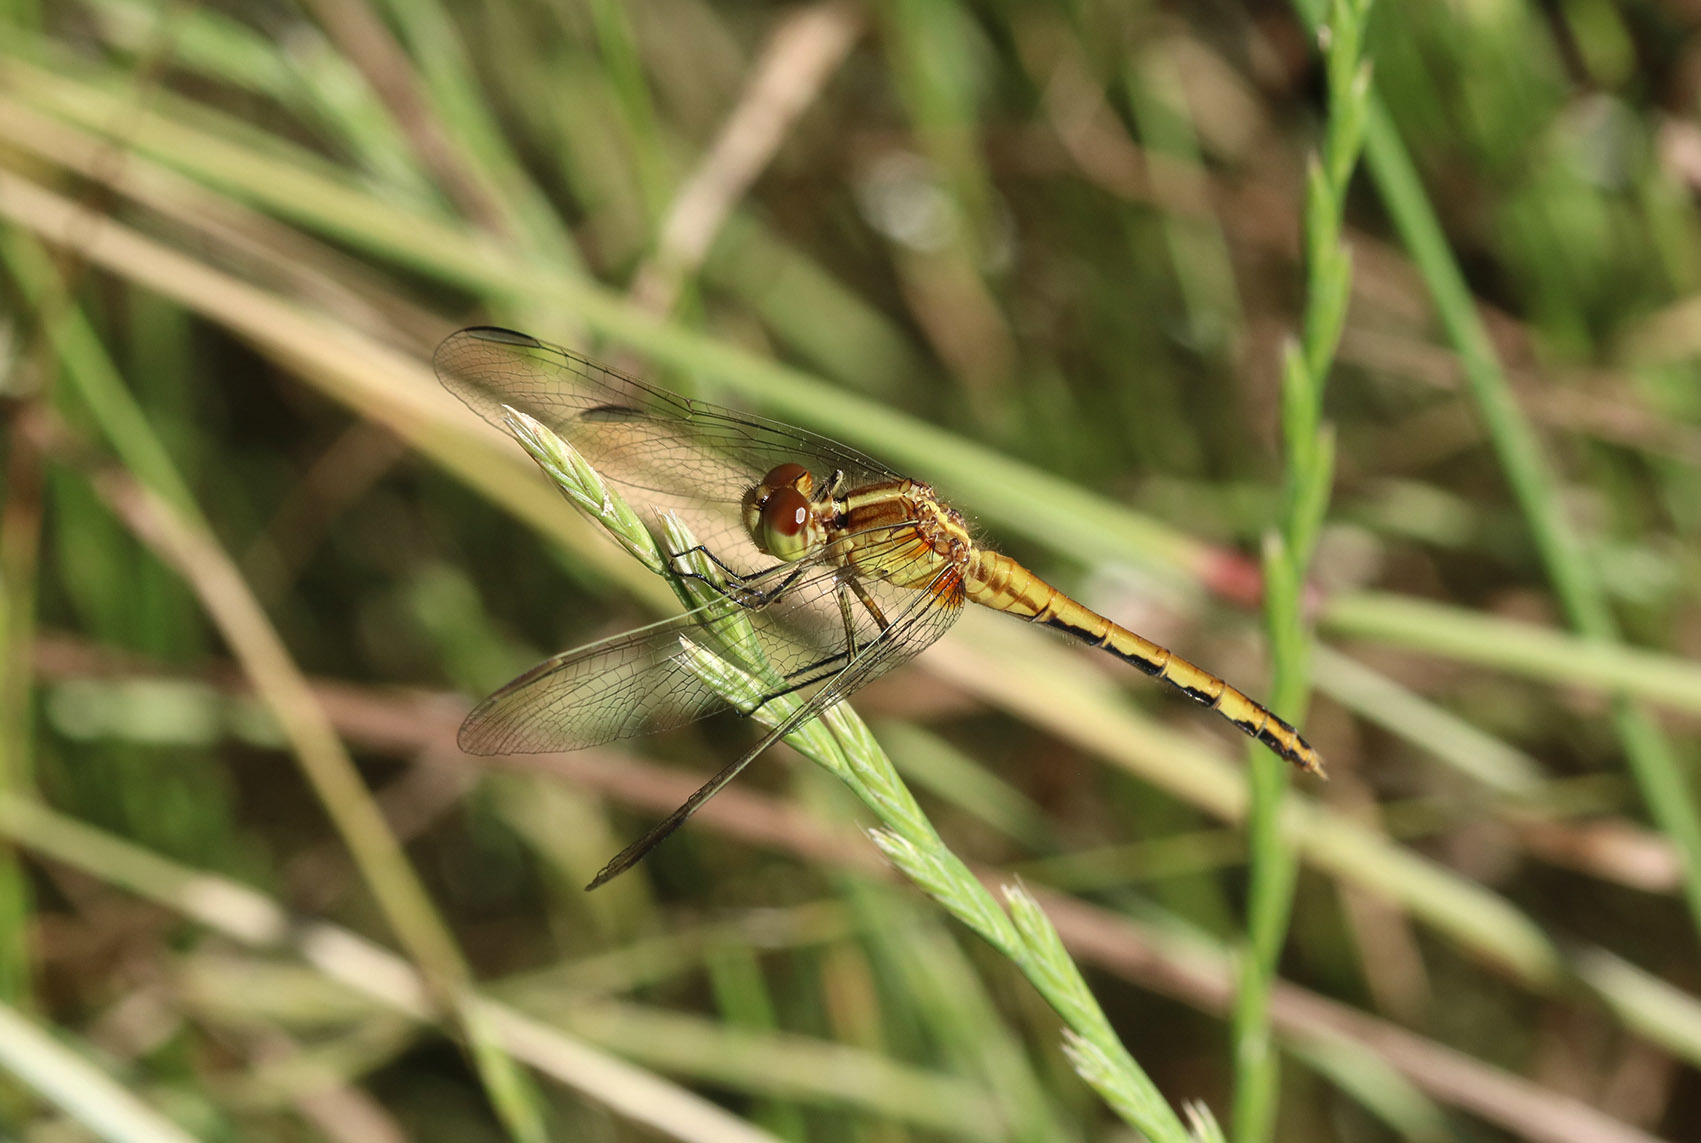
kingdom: Animalia
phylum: Arthropoda
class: Insecta
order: Odonata
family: Libellulidae
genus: Erythrodiplax
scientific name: Erythrodiplax nigricans
